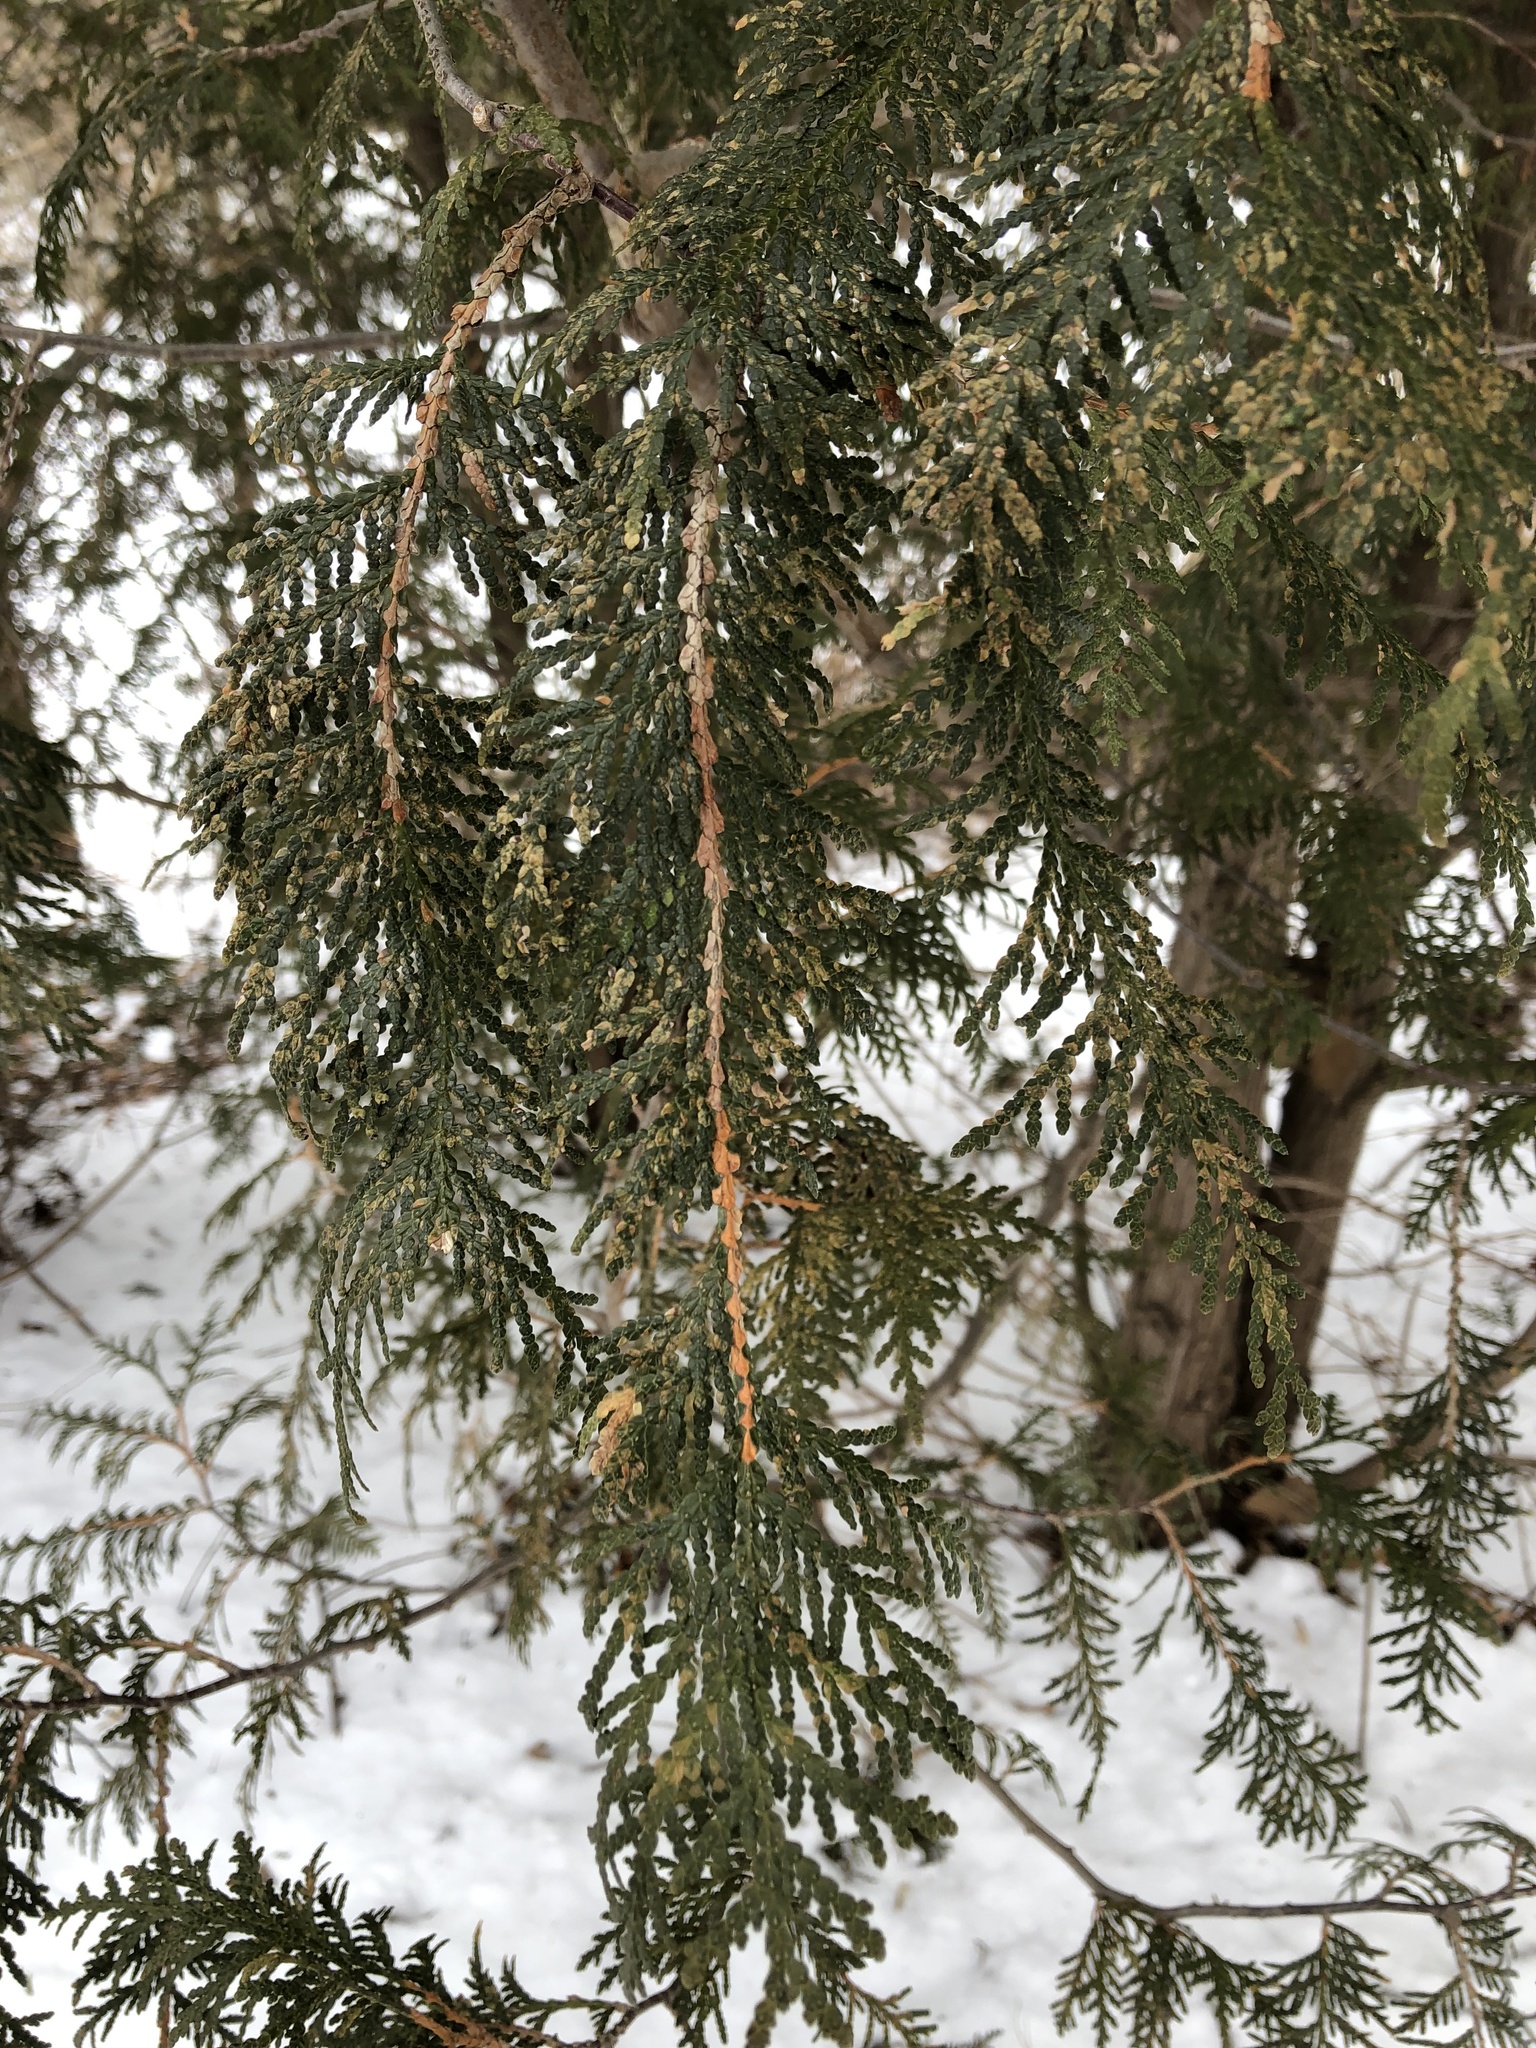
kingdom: Plantae
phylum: Tracheophyta
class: Pinopsida
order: Pinales
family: Cupressaceae
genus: Thuja
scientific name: Thuja occidentalis
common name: Northern white-cedar
